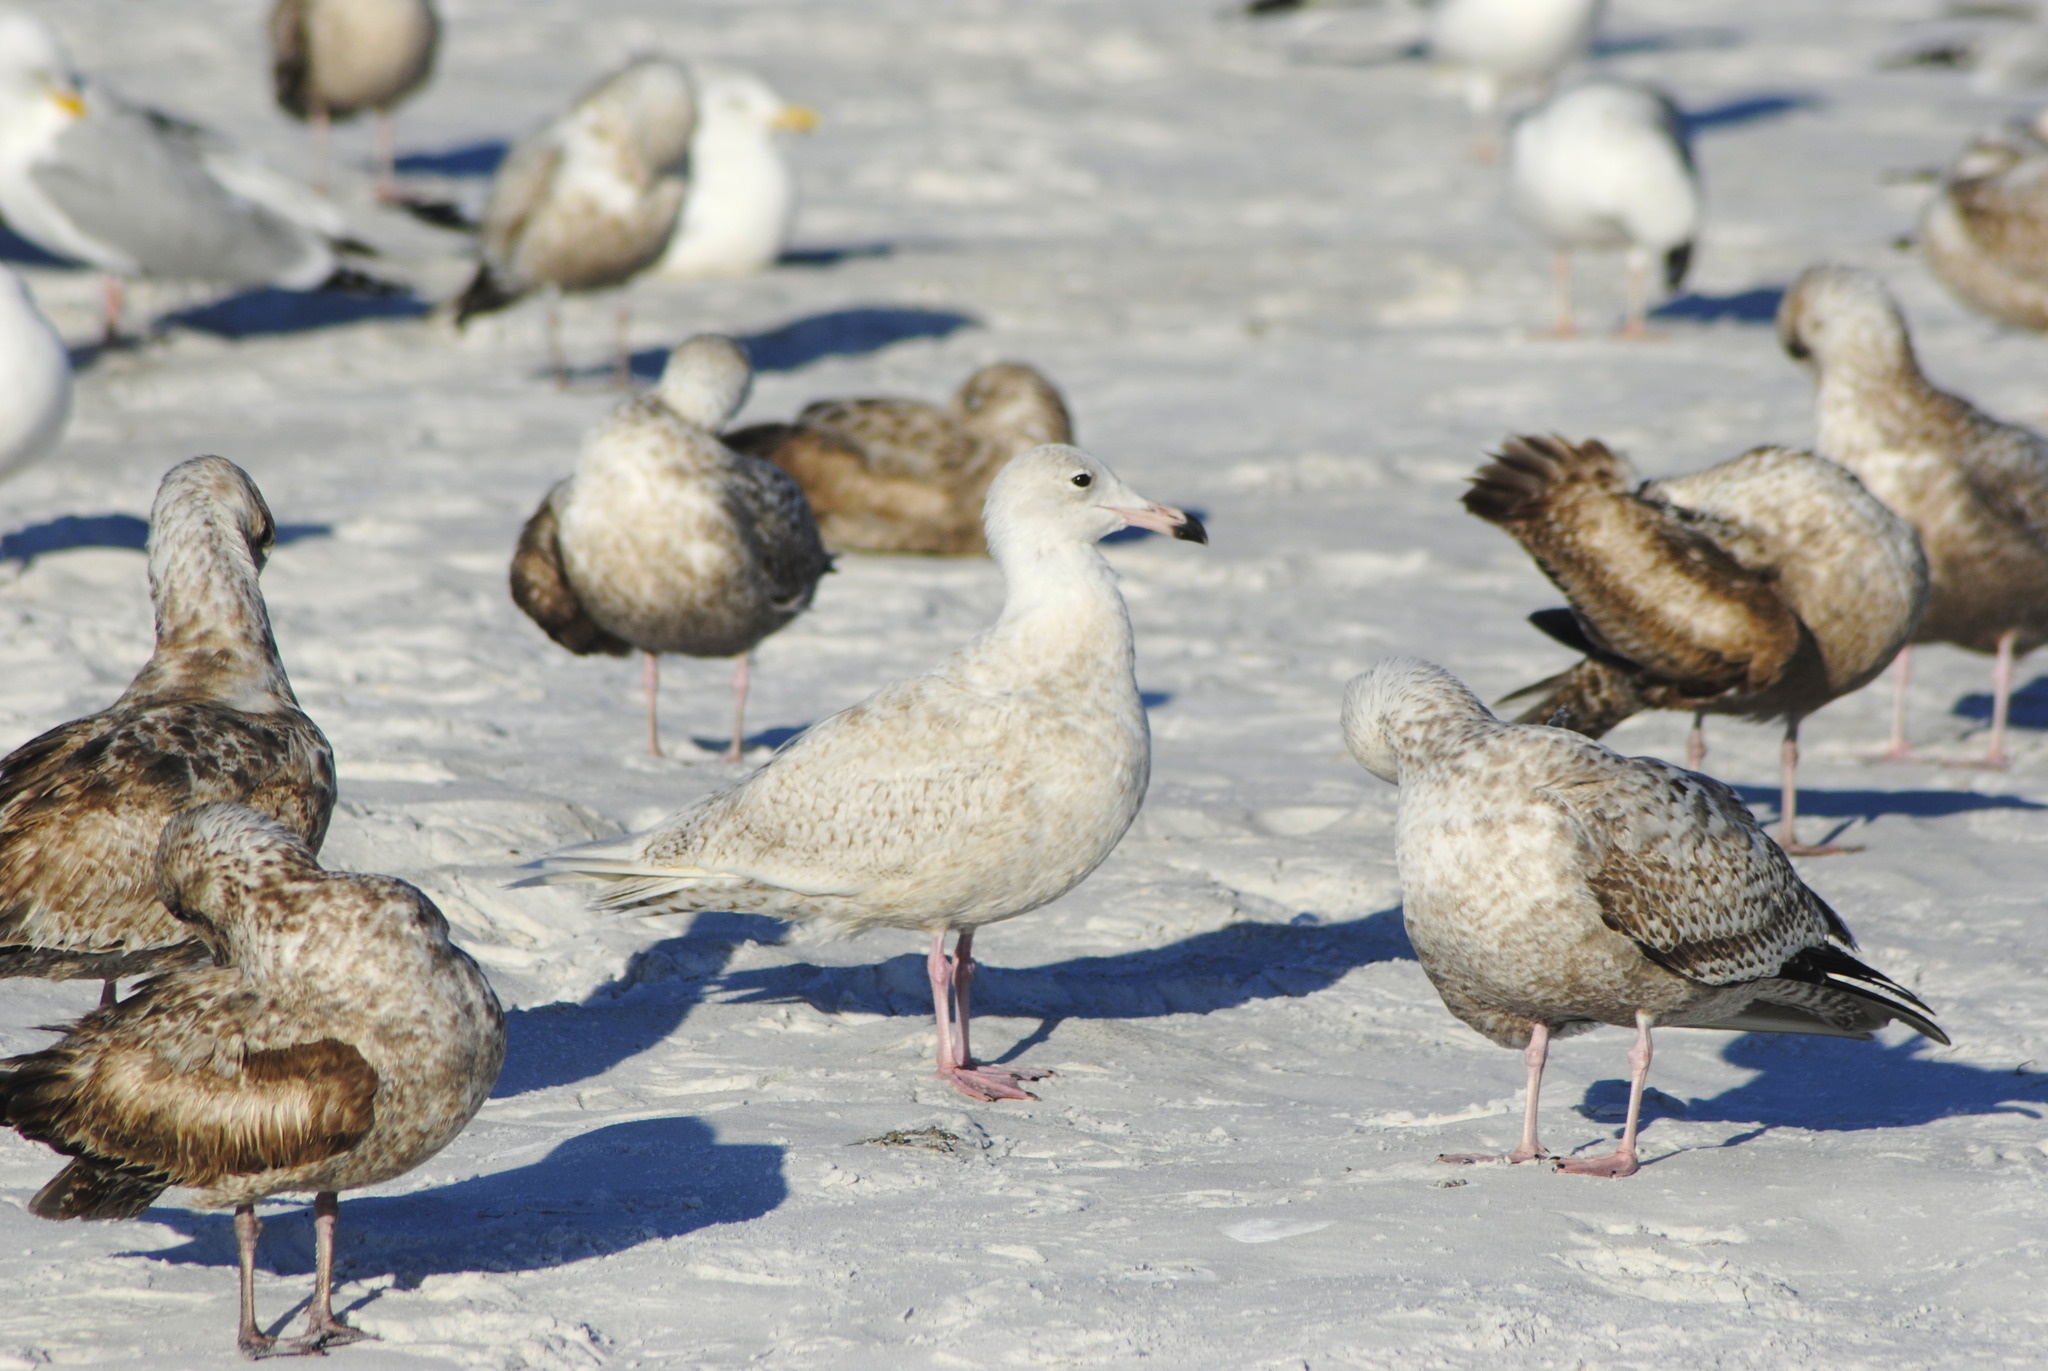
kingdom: Animalia
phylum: Chordata
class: Aves
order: Charadriiformes
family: Laridae
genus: Larus
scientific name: Larus hyperboreus
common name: Glaucous gull
